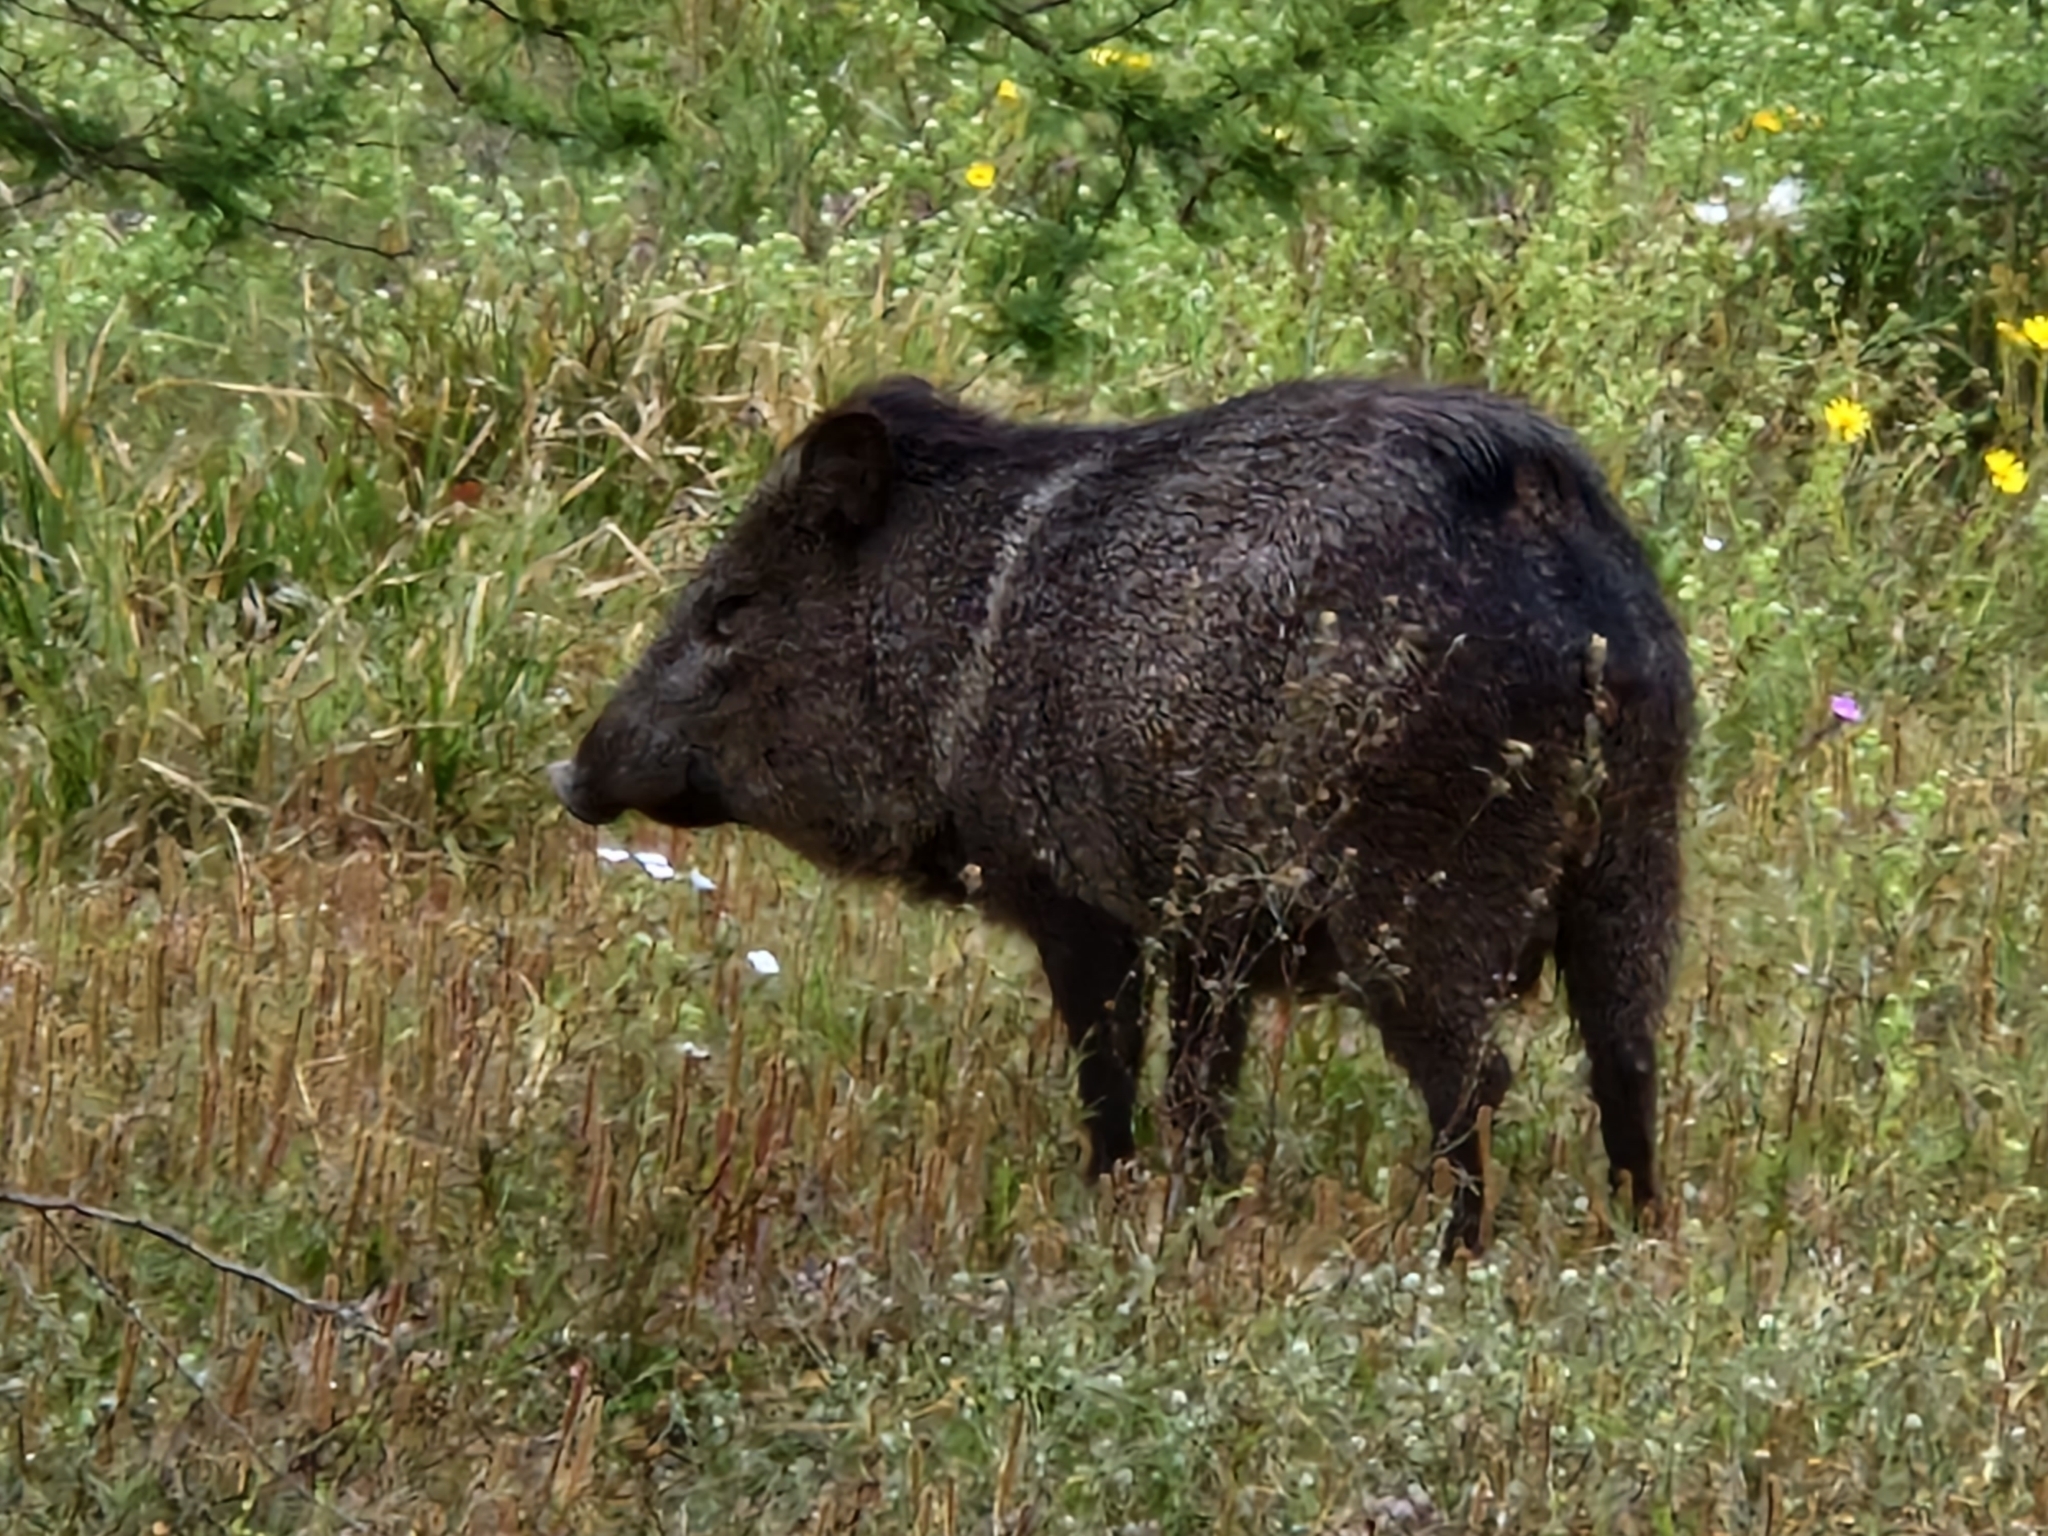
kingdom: Animalia
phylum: Chordata
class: Mammalia
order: Artiodactyla
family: Tayassuidae
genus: Pecari
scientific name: Pecari tajacu
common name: Collared peccary
